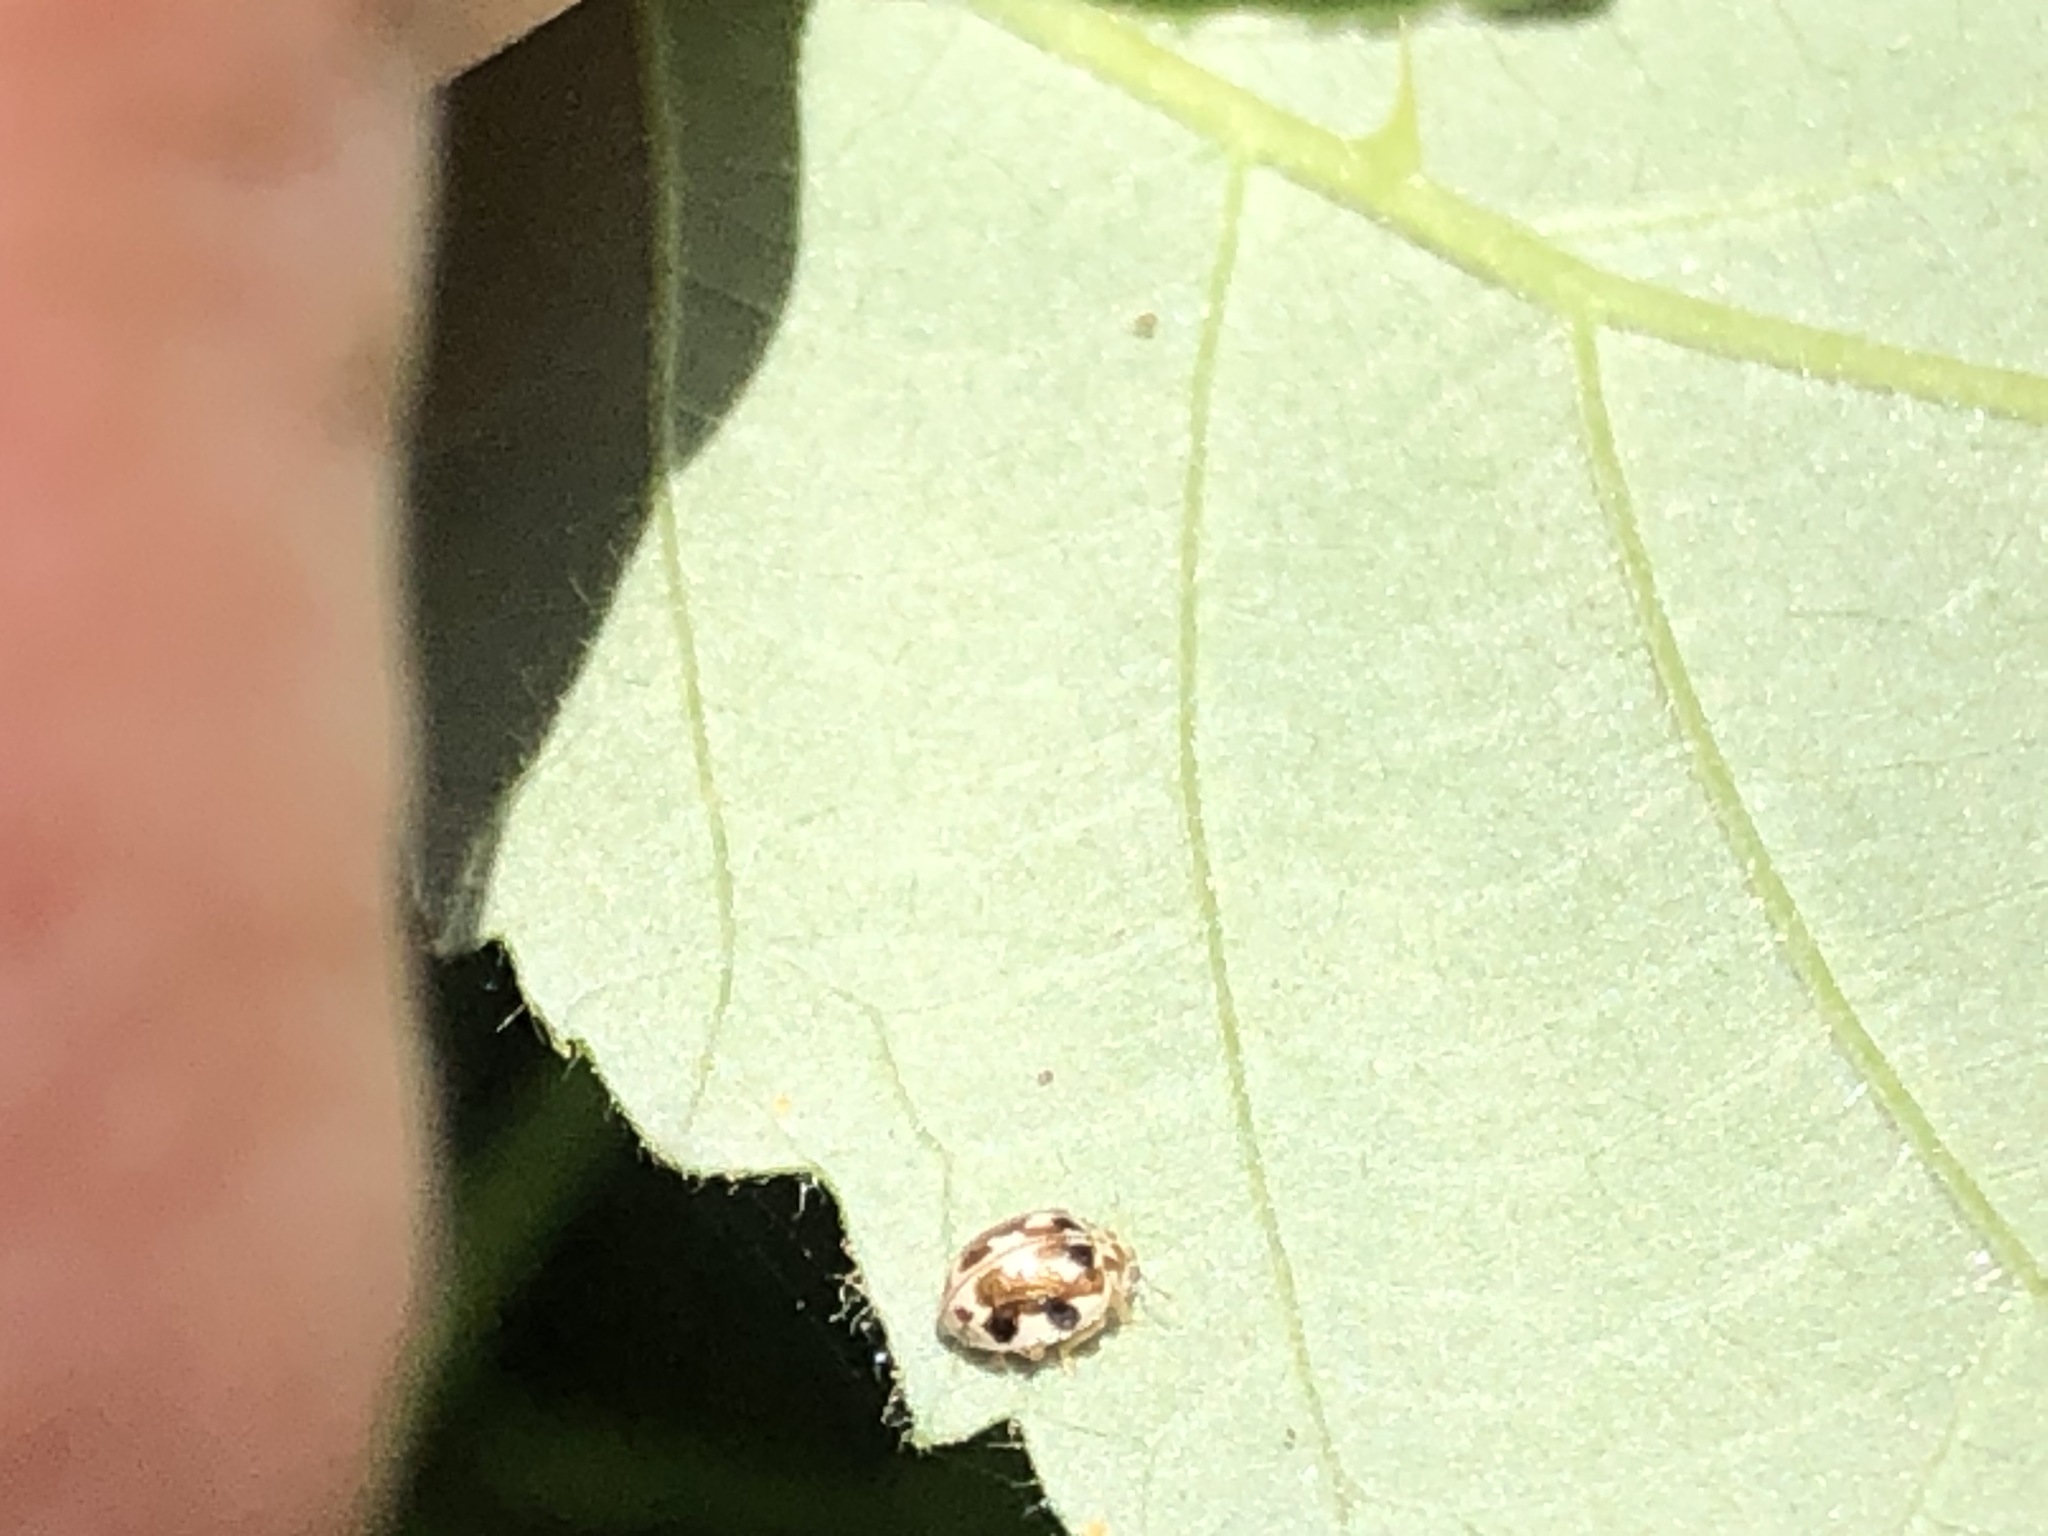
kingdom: Animalia
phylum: Arthropoda
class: Insecta
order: Coleoptera
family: Coccinellidae
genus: Psyllobora
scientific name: Psyllobora vigintimaculata
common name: Ladybird beetle
